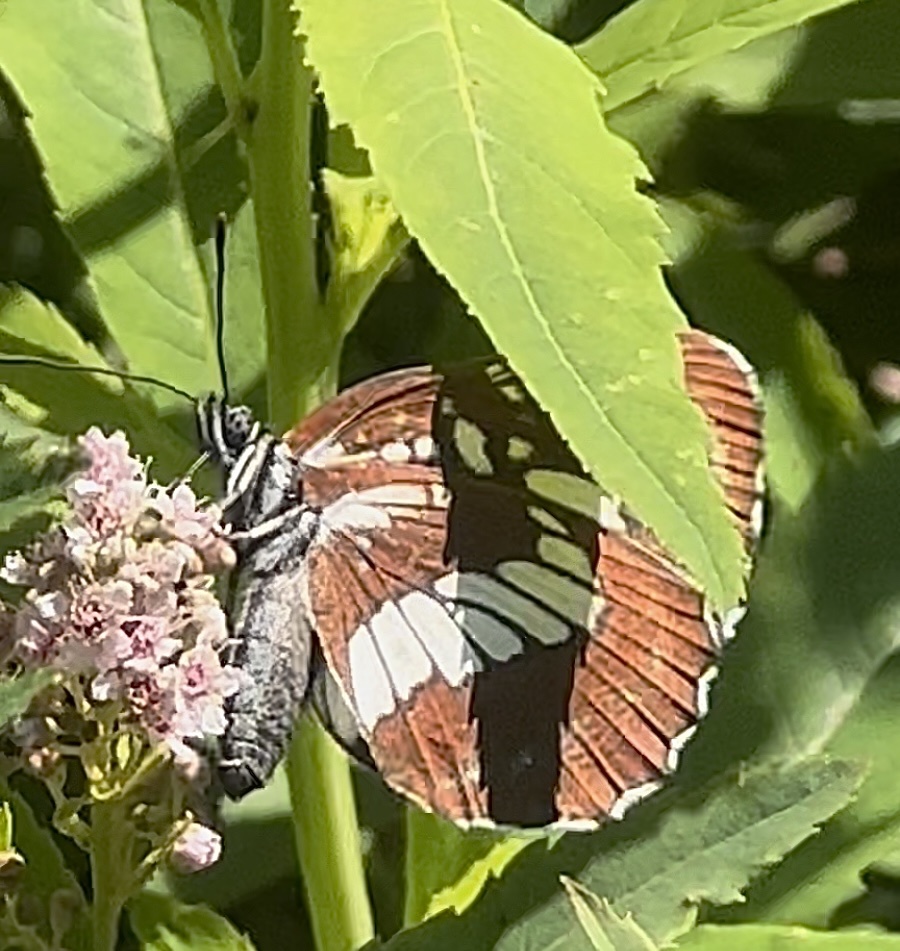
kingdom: Animalia
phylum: Arthropoda
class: Insecta
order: Lepidoptera
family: Nymphalidae
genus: Neptis
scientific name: Neptis rivularis
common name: Hungarian glider
